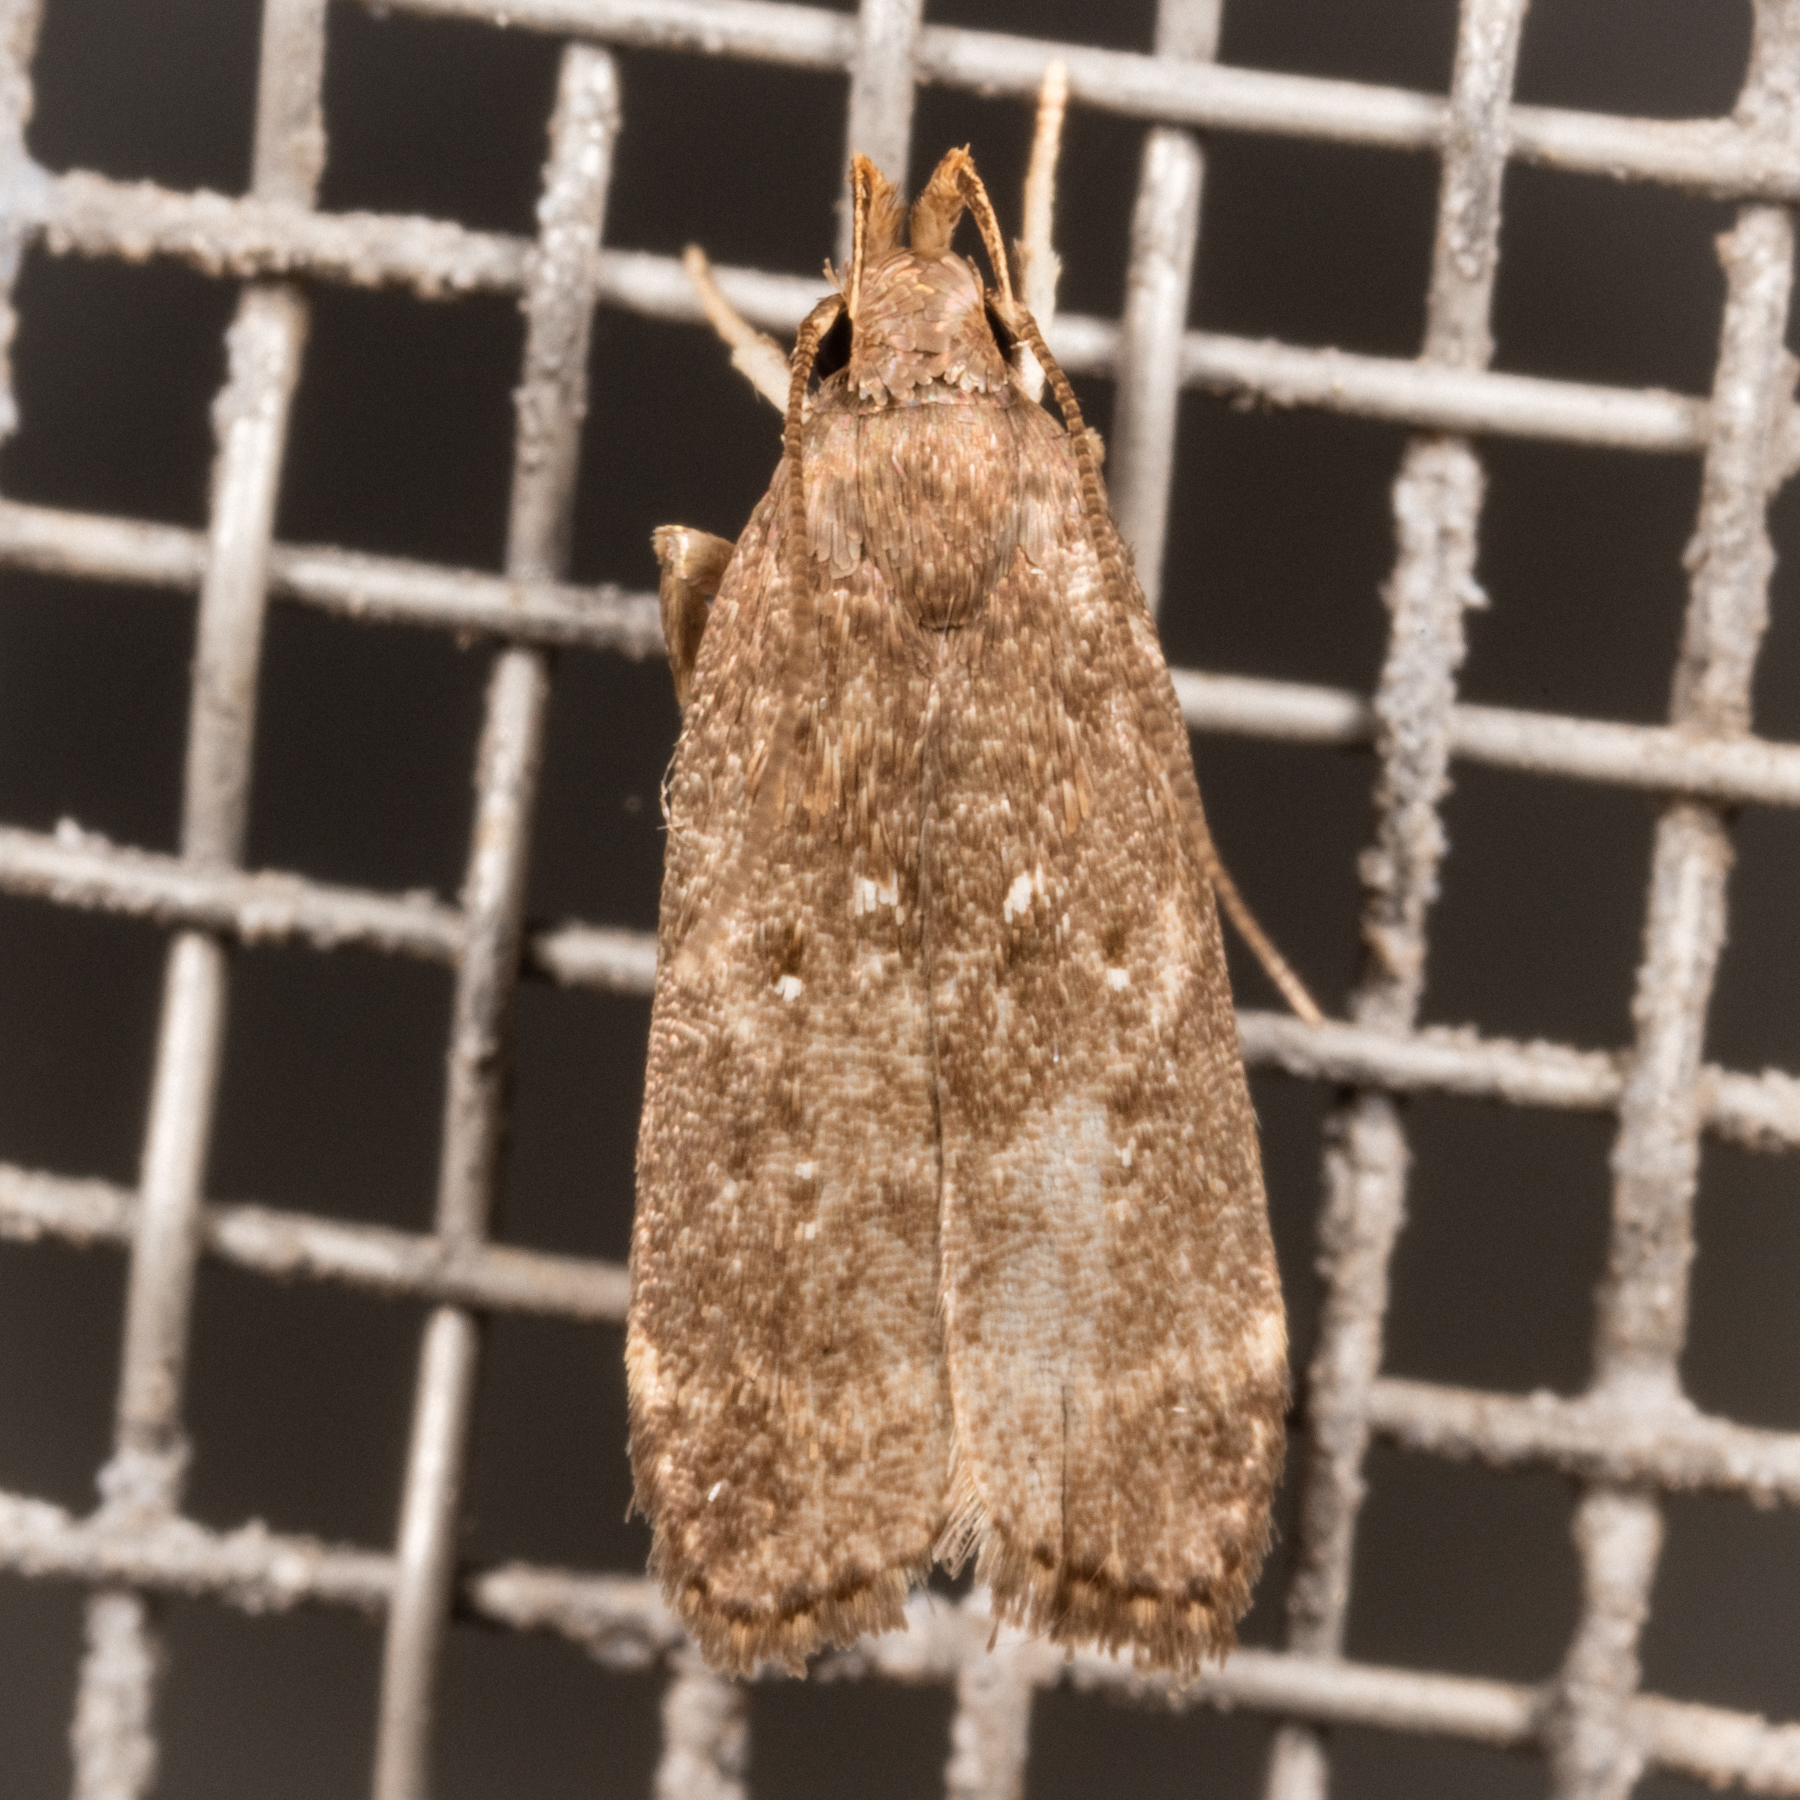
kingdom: Animalia
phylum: Arthropoda
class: Insecta
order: Lepidoptera
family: Gelechiidae
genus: Helcystogramma
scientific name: Helcystogramma melantherella
